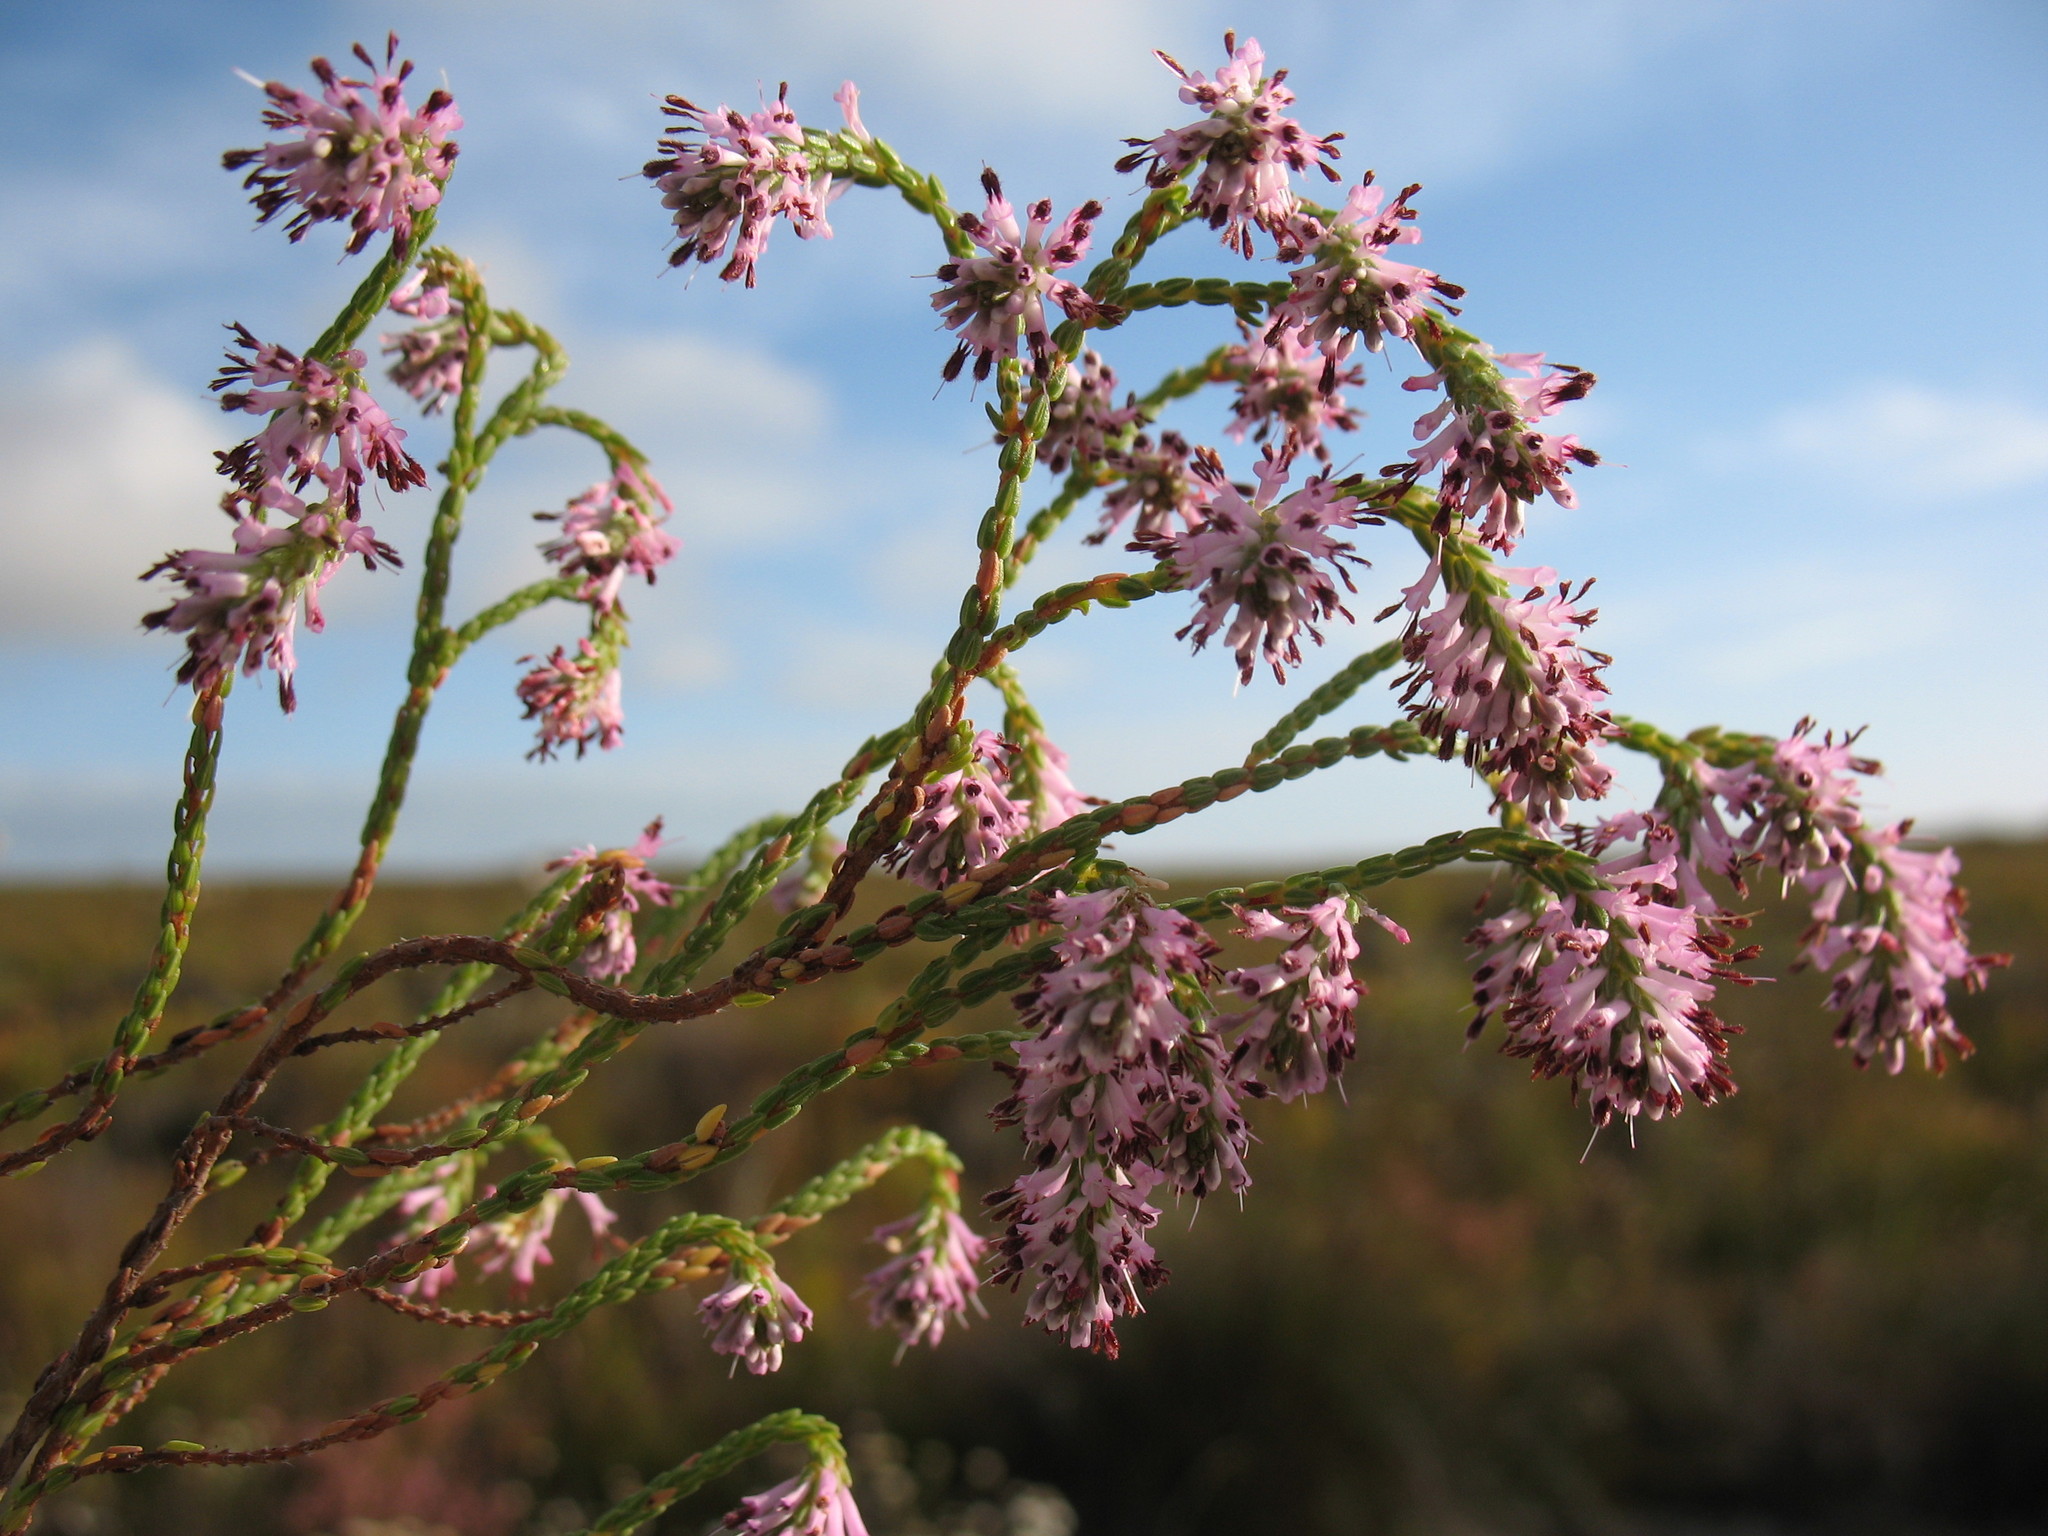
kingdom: Plantae
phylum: Tracheophyta
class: Magnoliopsida
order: Ericales
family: Ericaceae
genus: Erica
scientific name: Erica innovans
